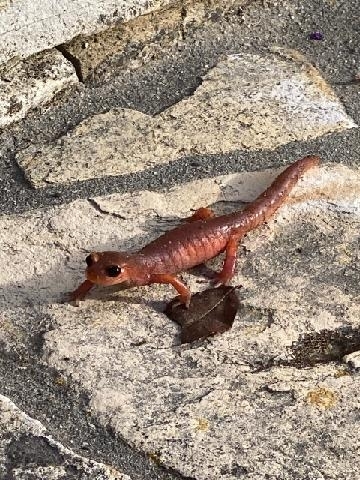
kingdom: Animalia
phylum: Chordata
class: Amphibia
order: Caudata
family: Plethodontidae
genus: Ensatina
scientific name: Ensatina eschscholtzii
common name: Ensatina
